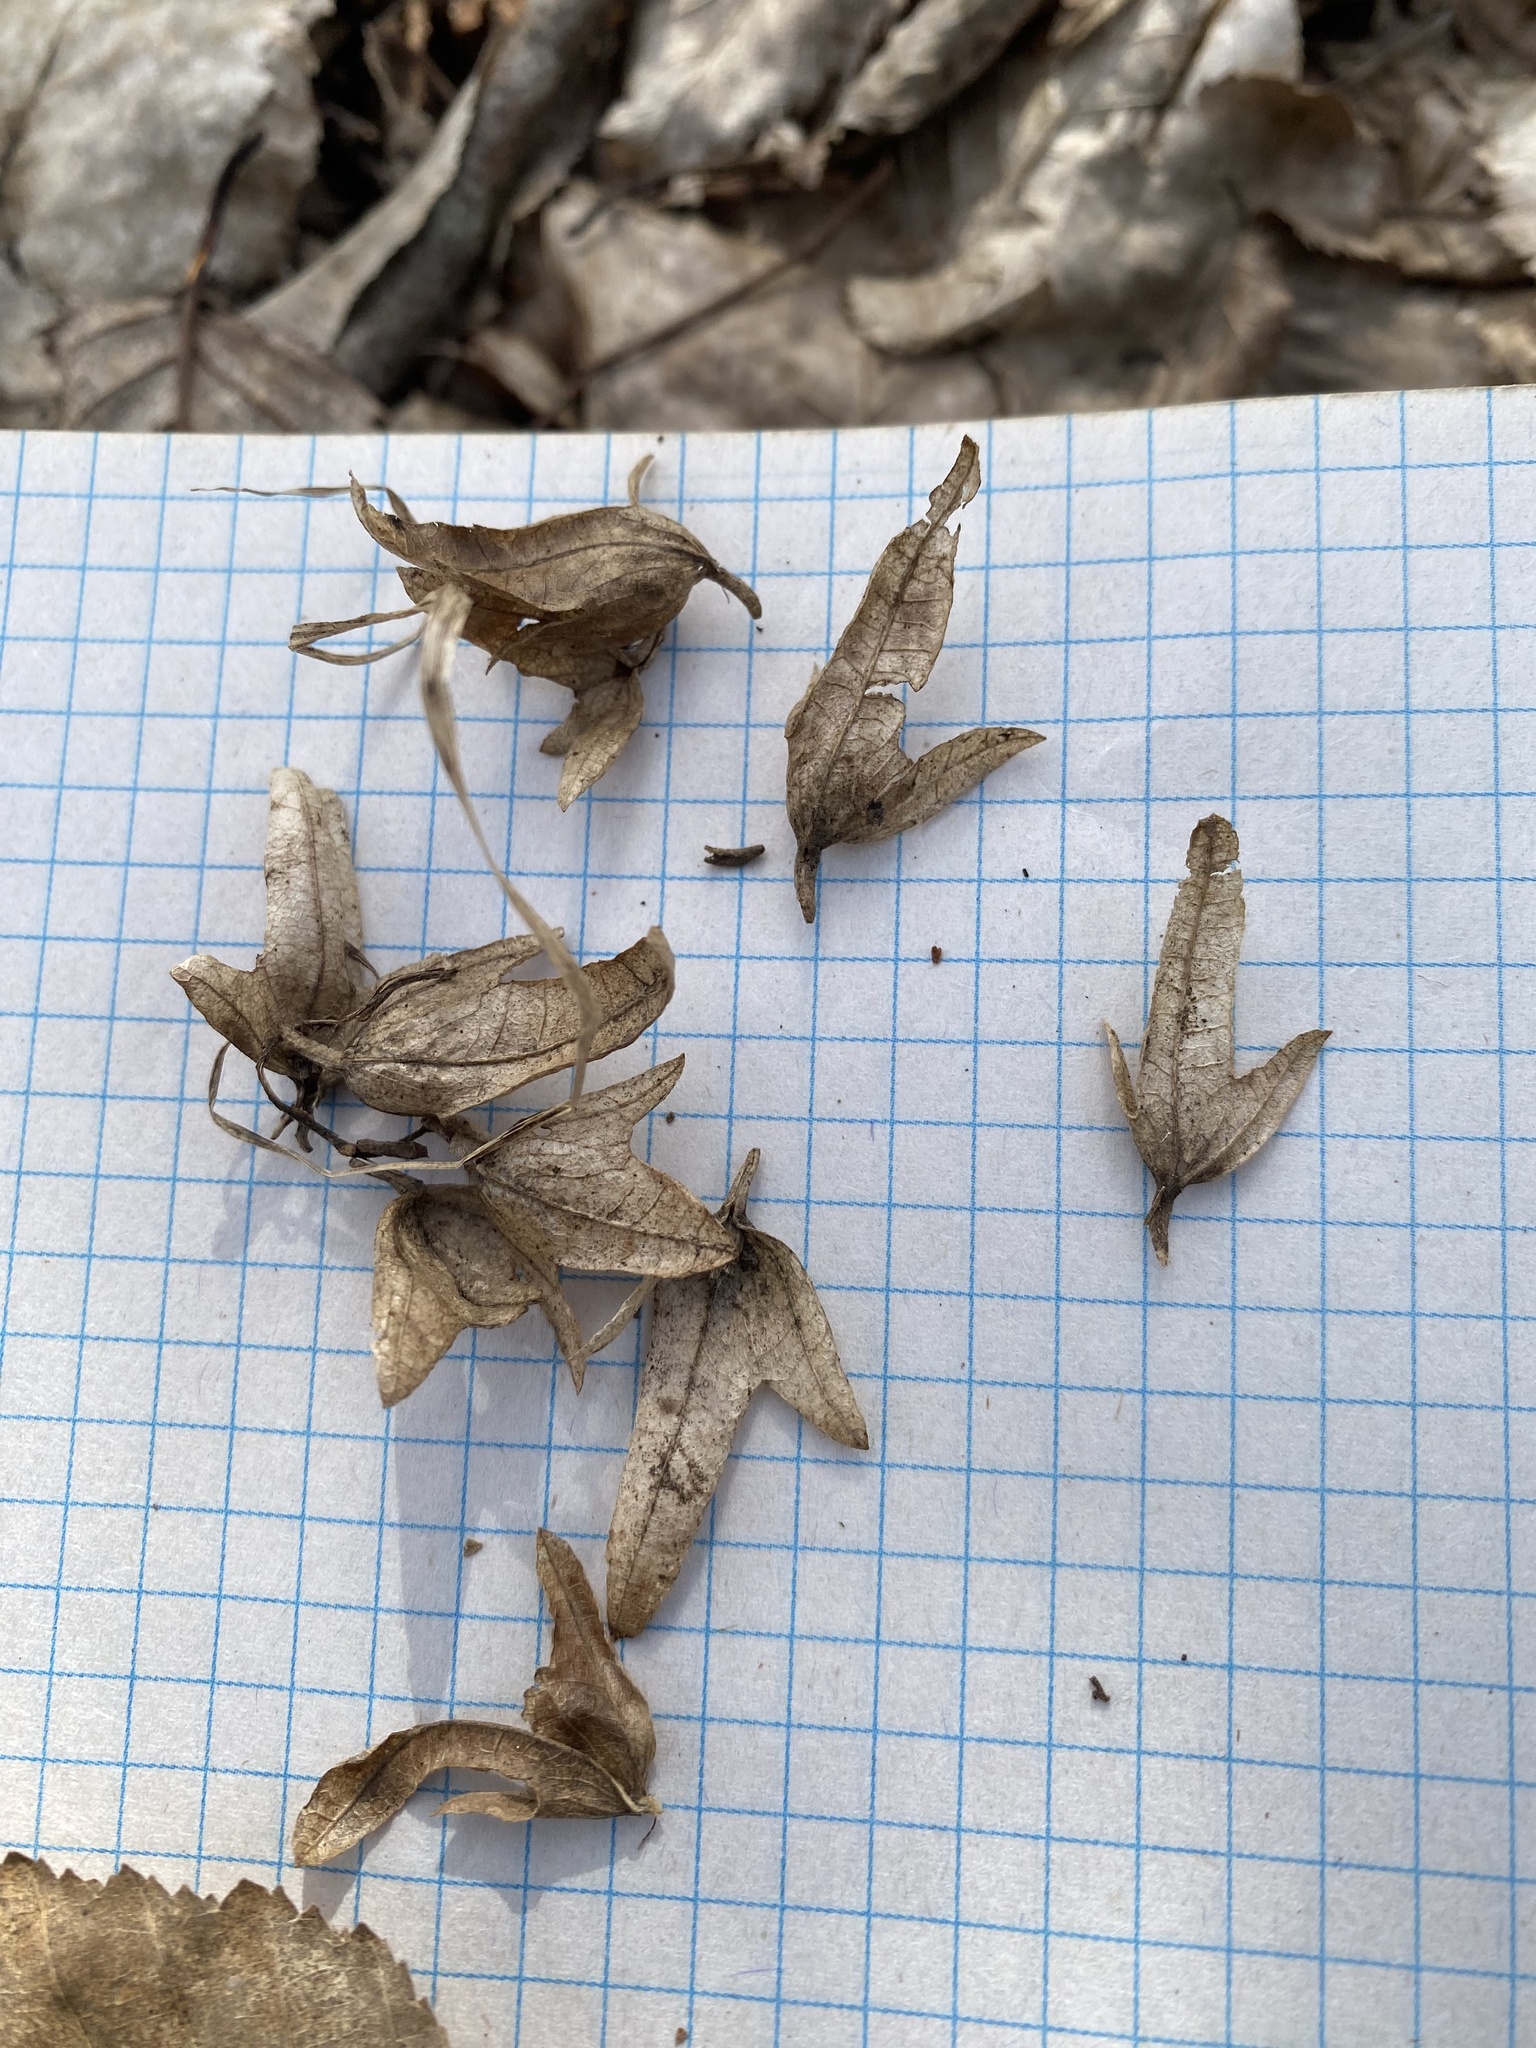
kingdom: Plantae
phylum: Tracheophyta
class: Magnoliopsida
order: Fagales
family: Betulaceae
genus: Carpinus
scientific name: Carpinus betulus
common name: Hornbeam
